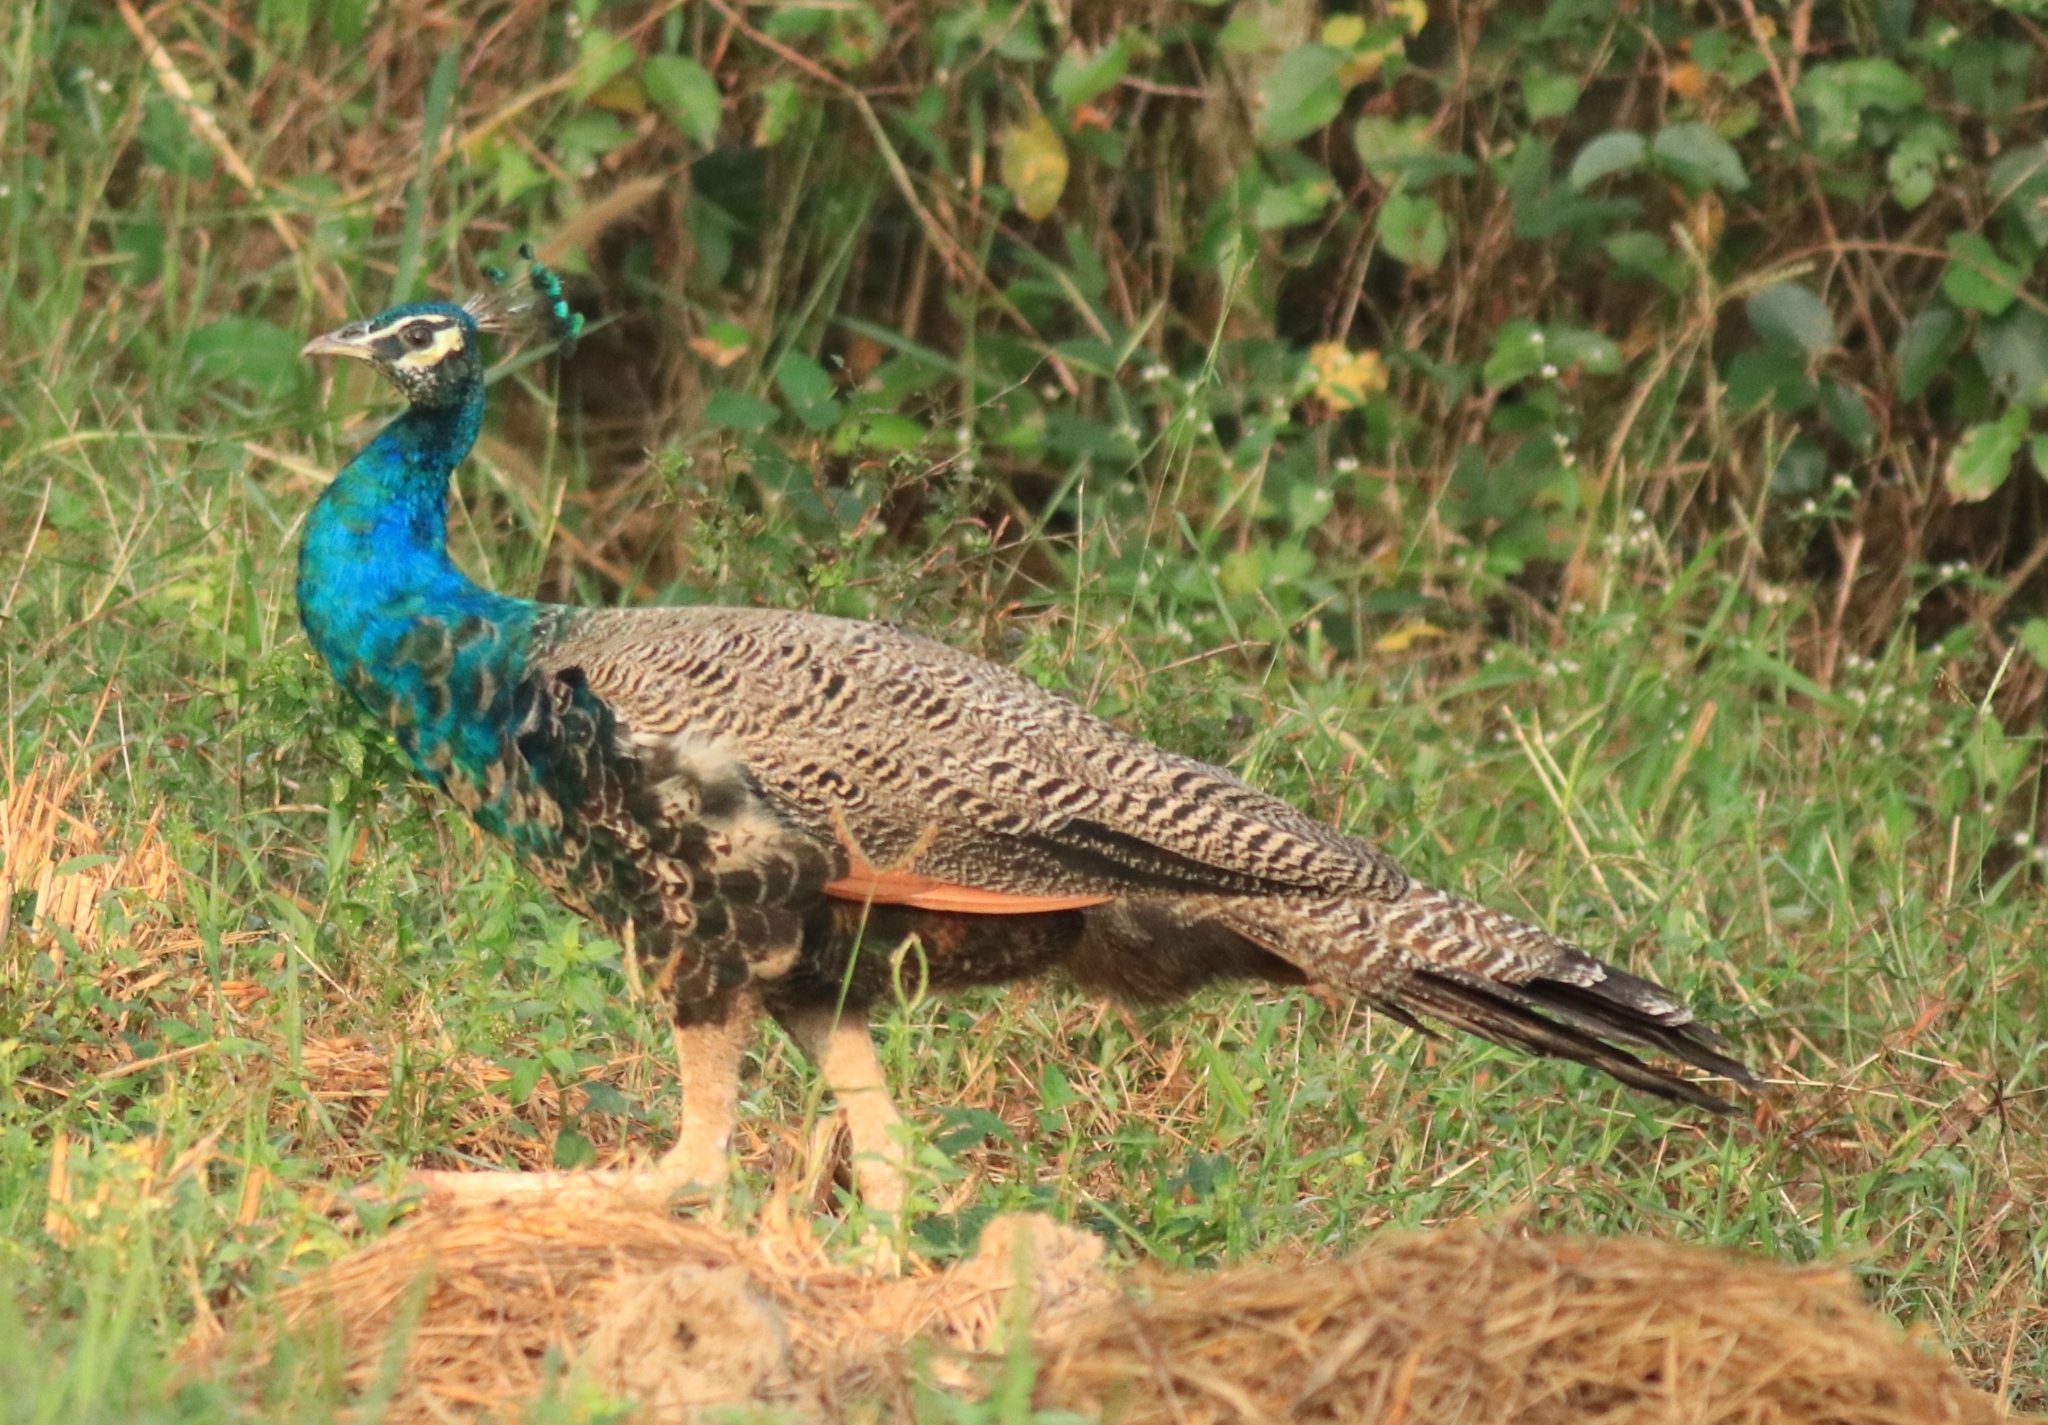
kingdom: Animalia
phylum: Chordata
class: Aves
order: Galliformes
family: Phasianidae
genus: Pavo
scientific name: Pavo cristatus
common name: Indian peafowl
